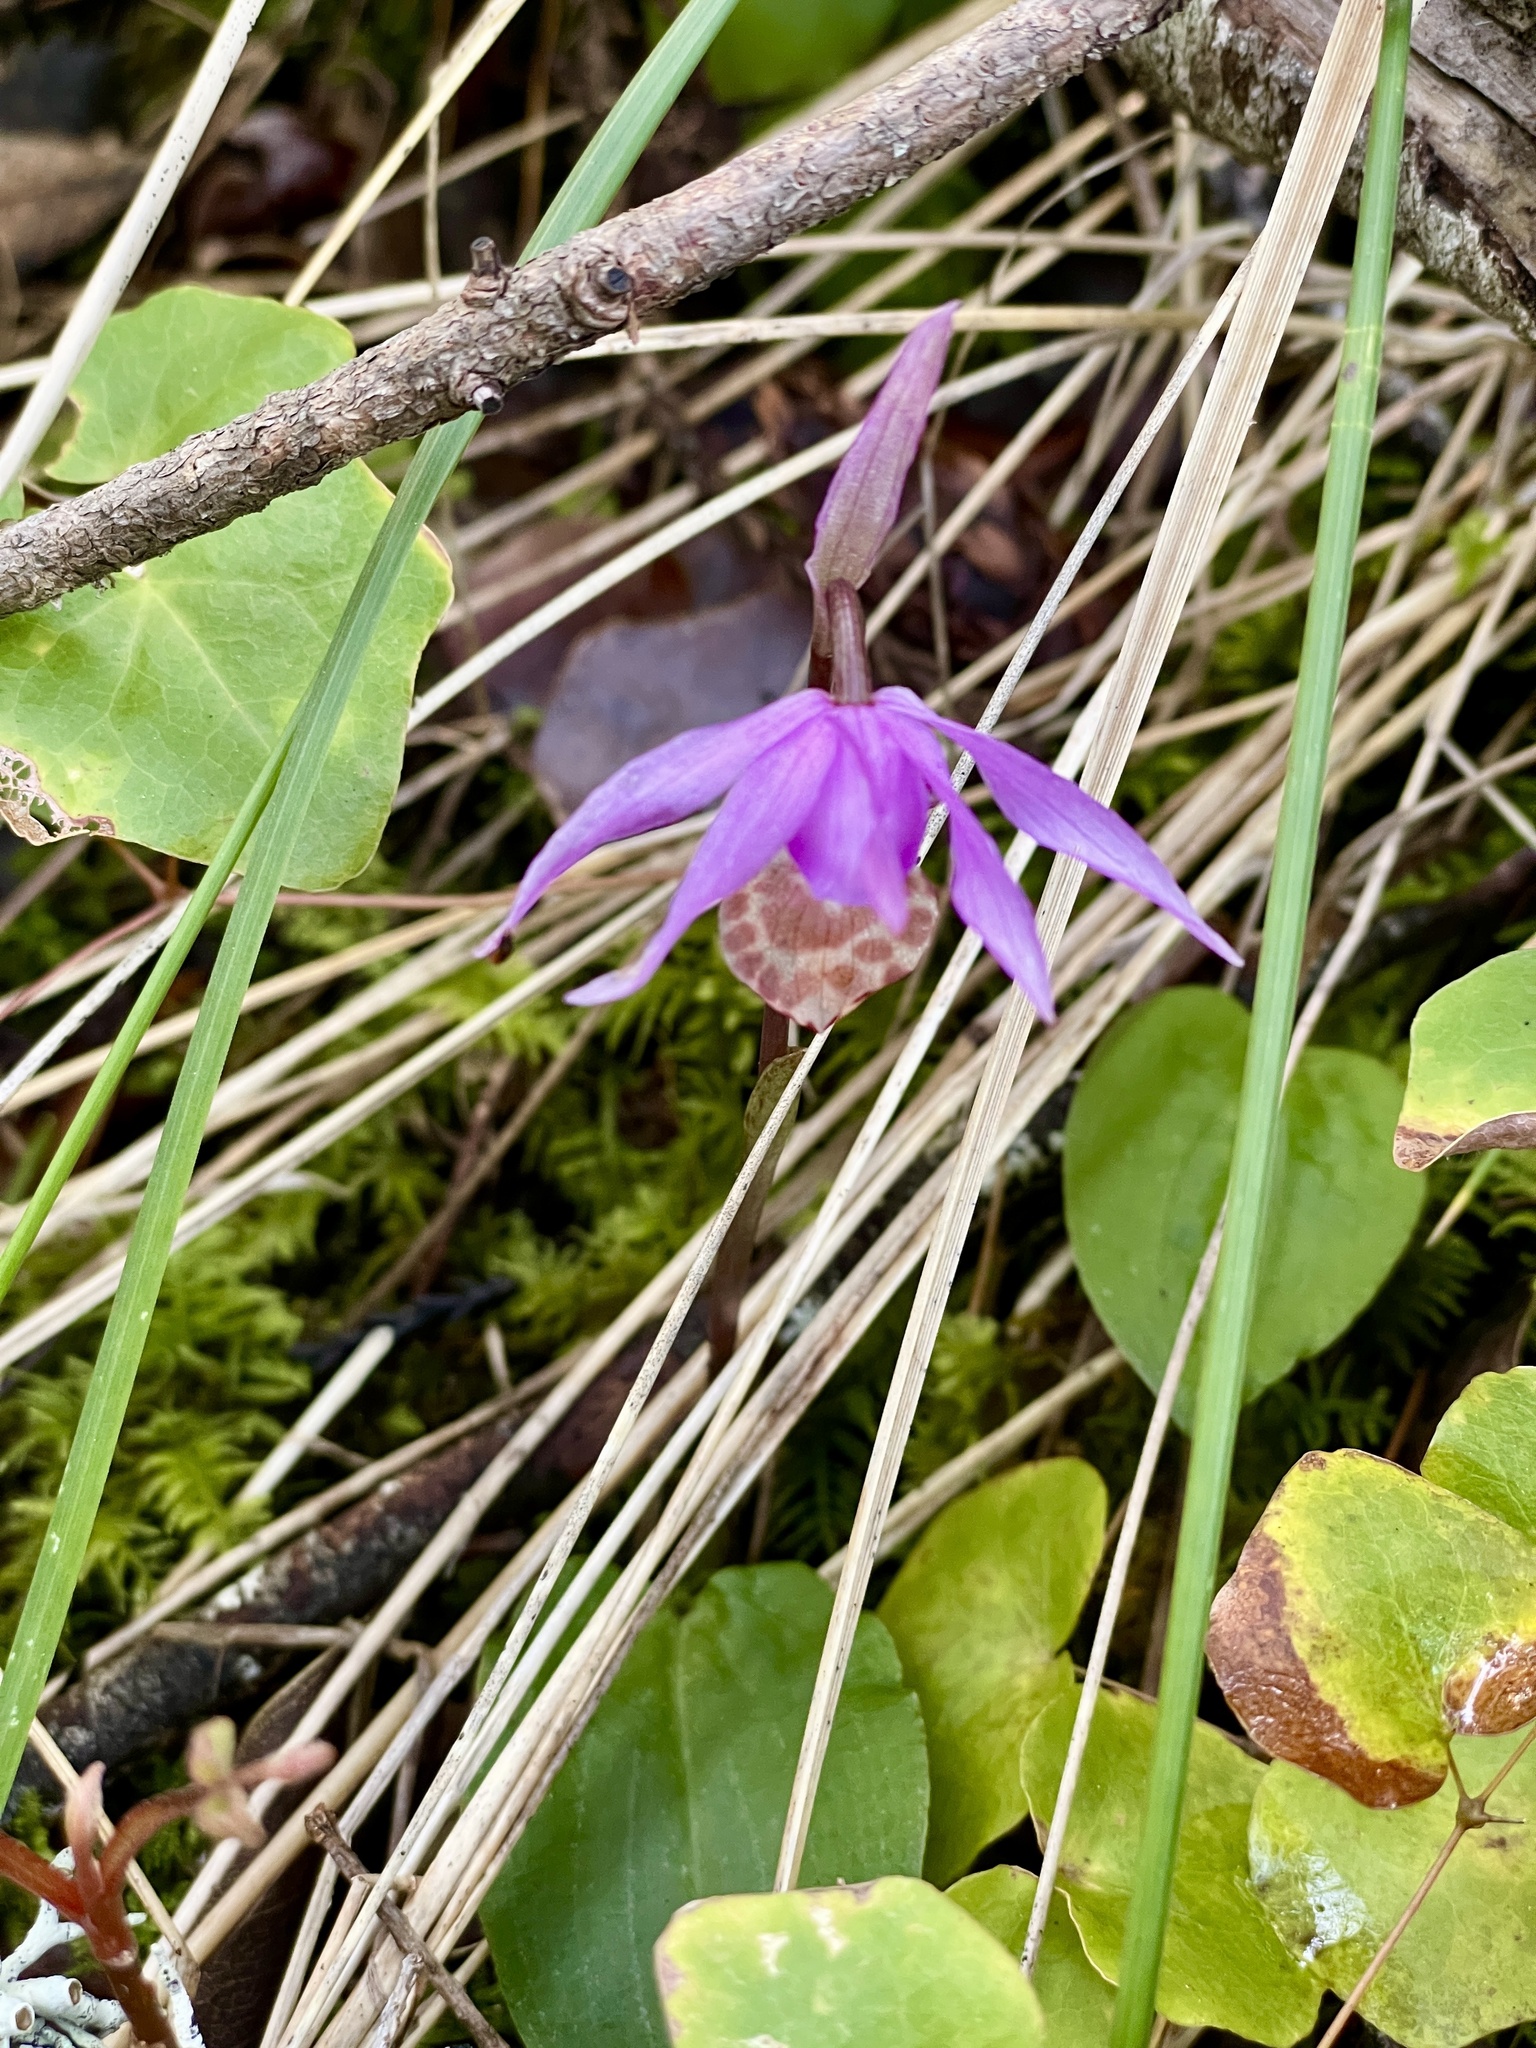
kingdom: Plantae
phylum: Tracheophyta
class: Liliopsida
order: Asparagales
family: Orchidaceae
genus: Calypso
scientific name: Calypso bulbosa
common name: Calypso
